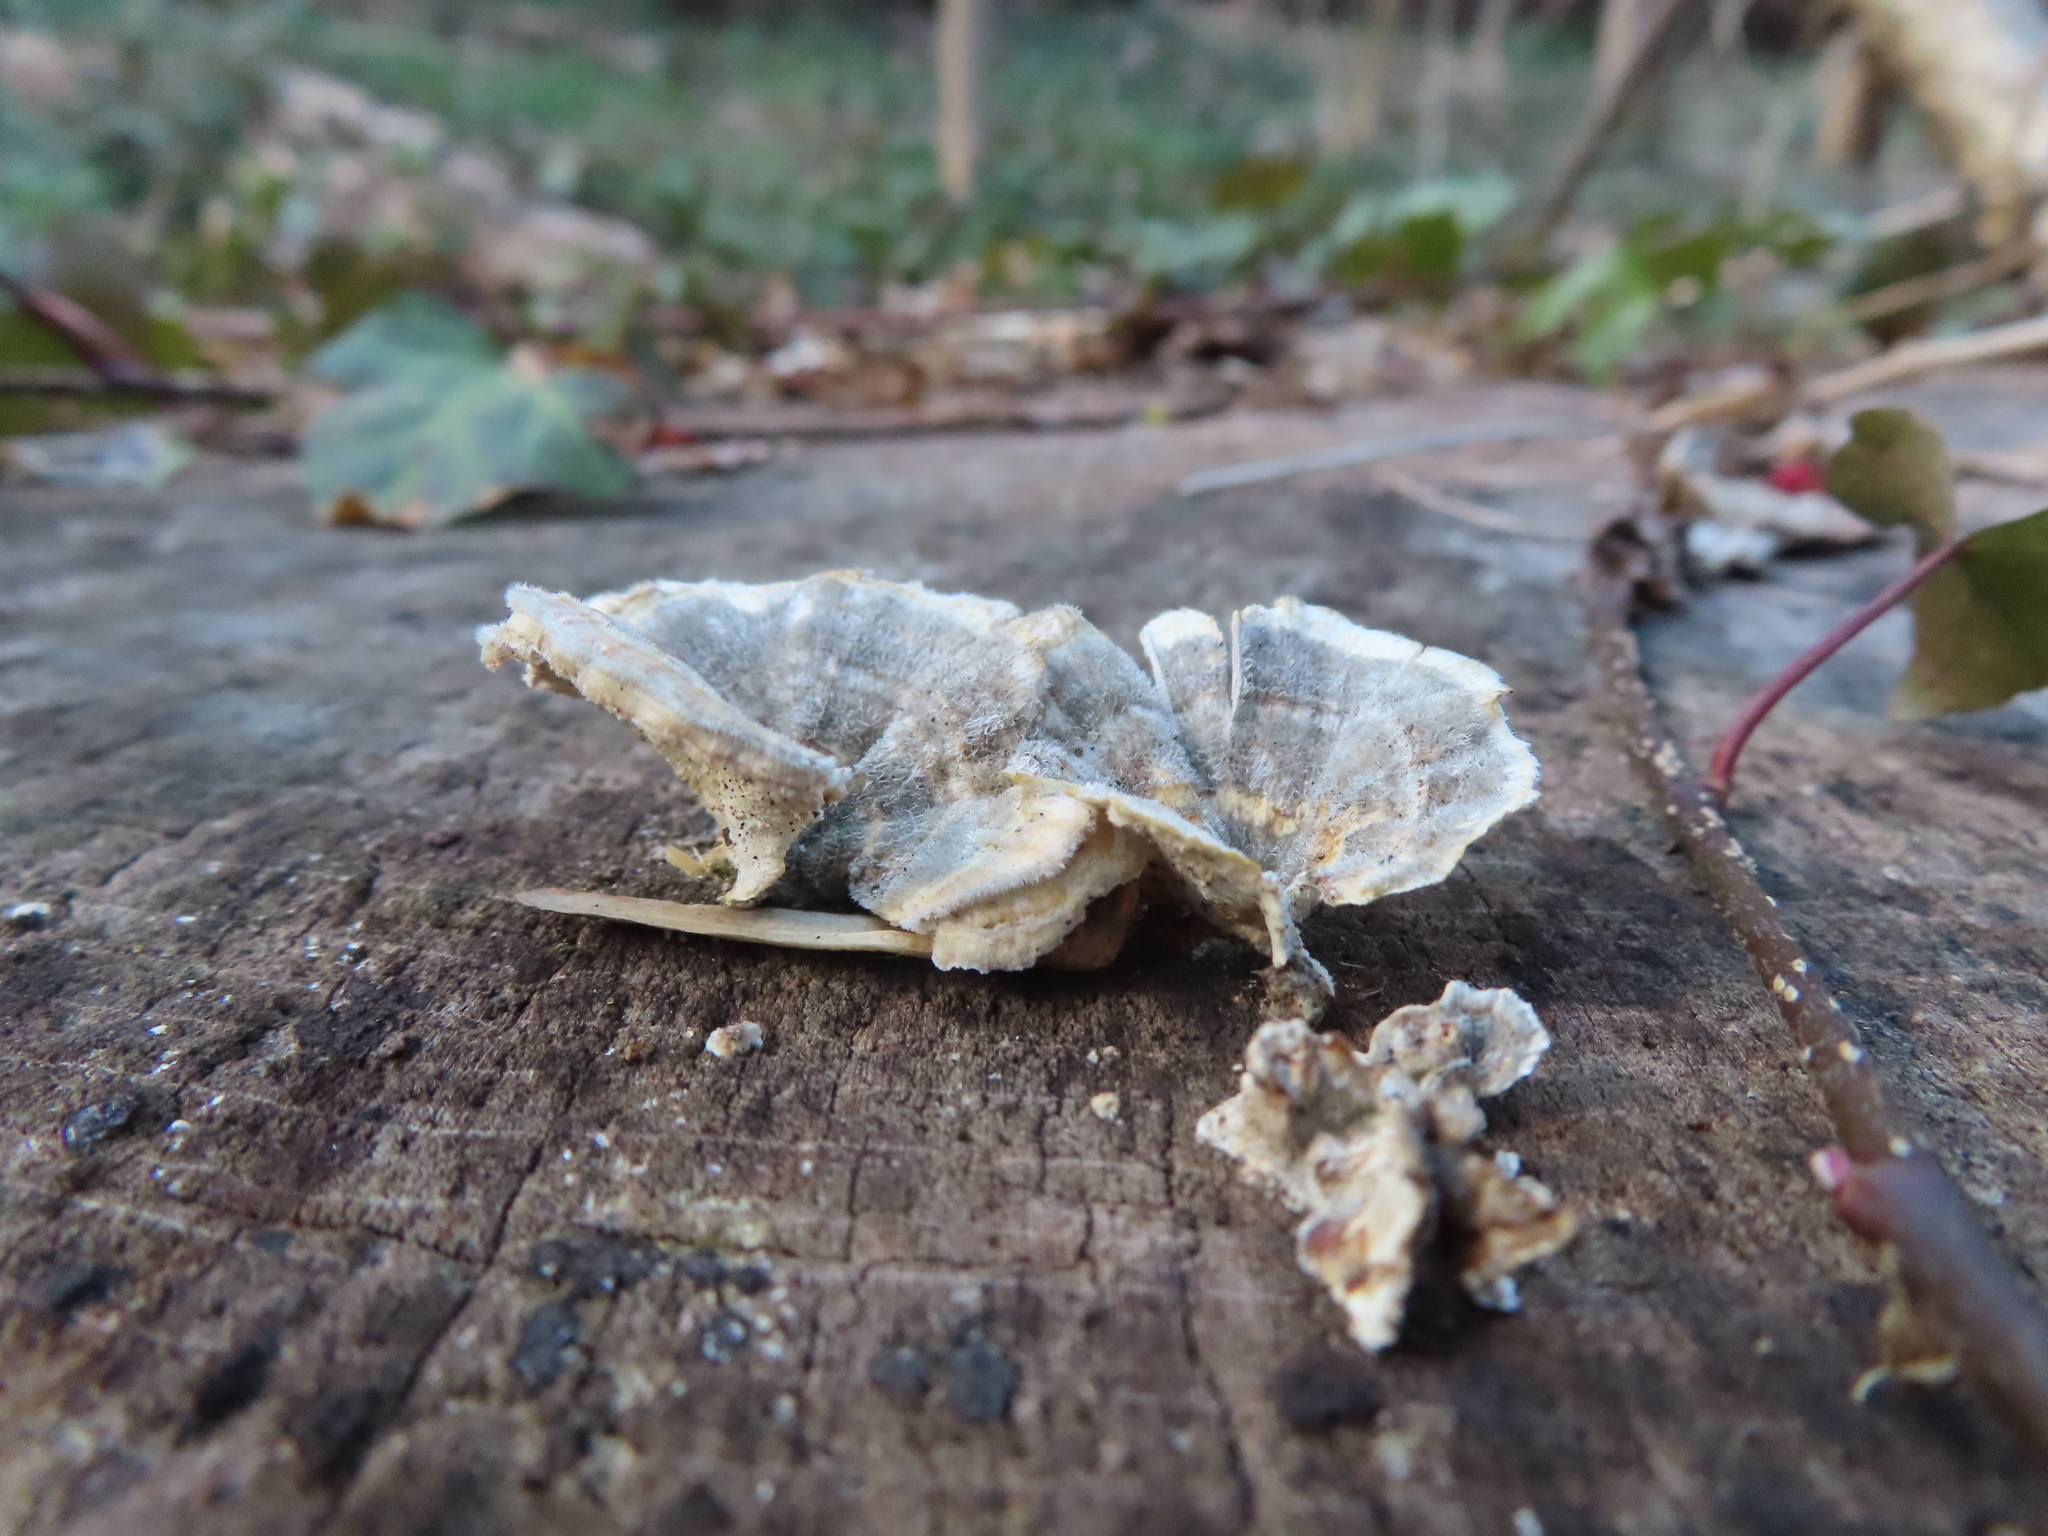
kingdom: Fungi
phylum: Basidiomycota
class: Agaricomycetes
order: Polyporales
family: Polyporaceae
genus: Trametes
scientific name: Trametes versicolor
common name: Turkeytail
